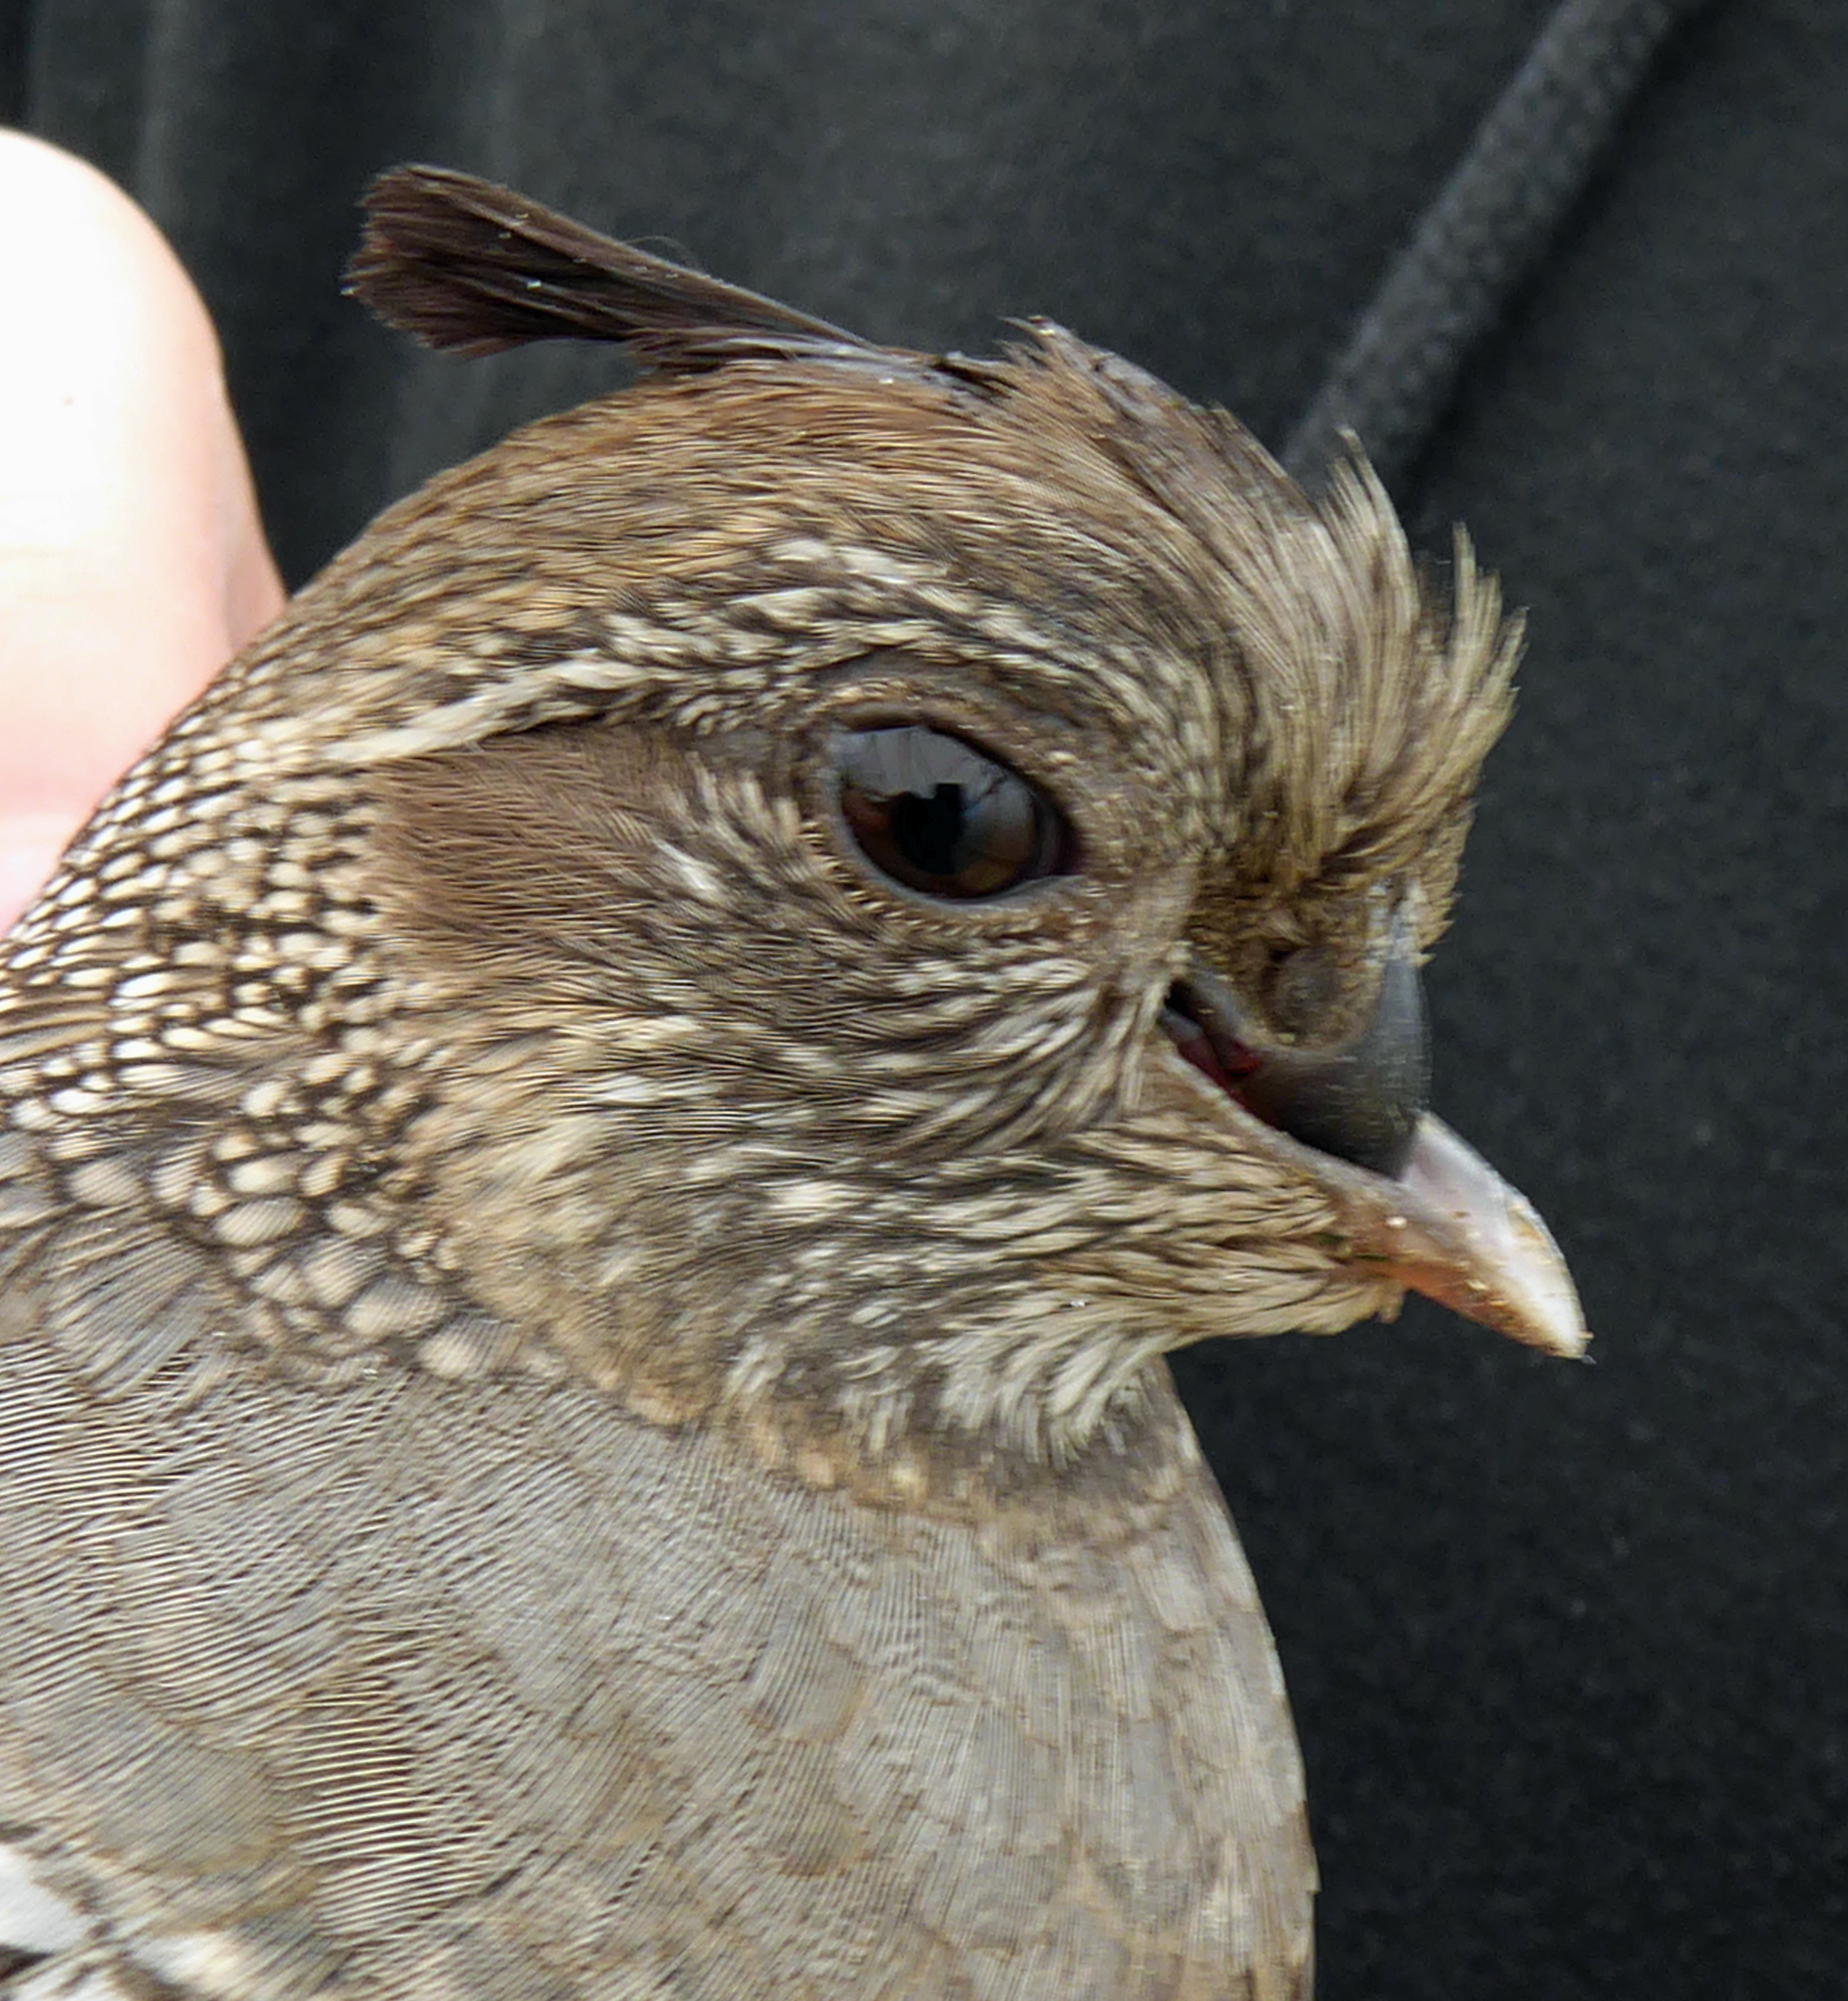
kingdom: Animalia
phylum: Chordata
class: Aves
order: Galliformes
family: Odontophoridae
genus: Callipepla
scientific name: Callipepla californica
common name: California quail
